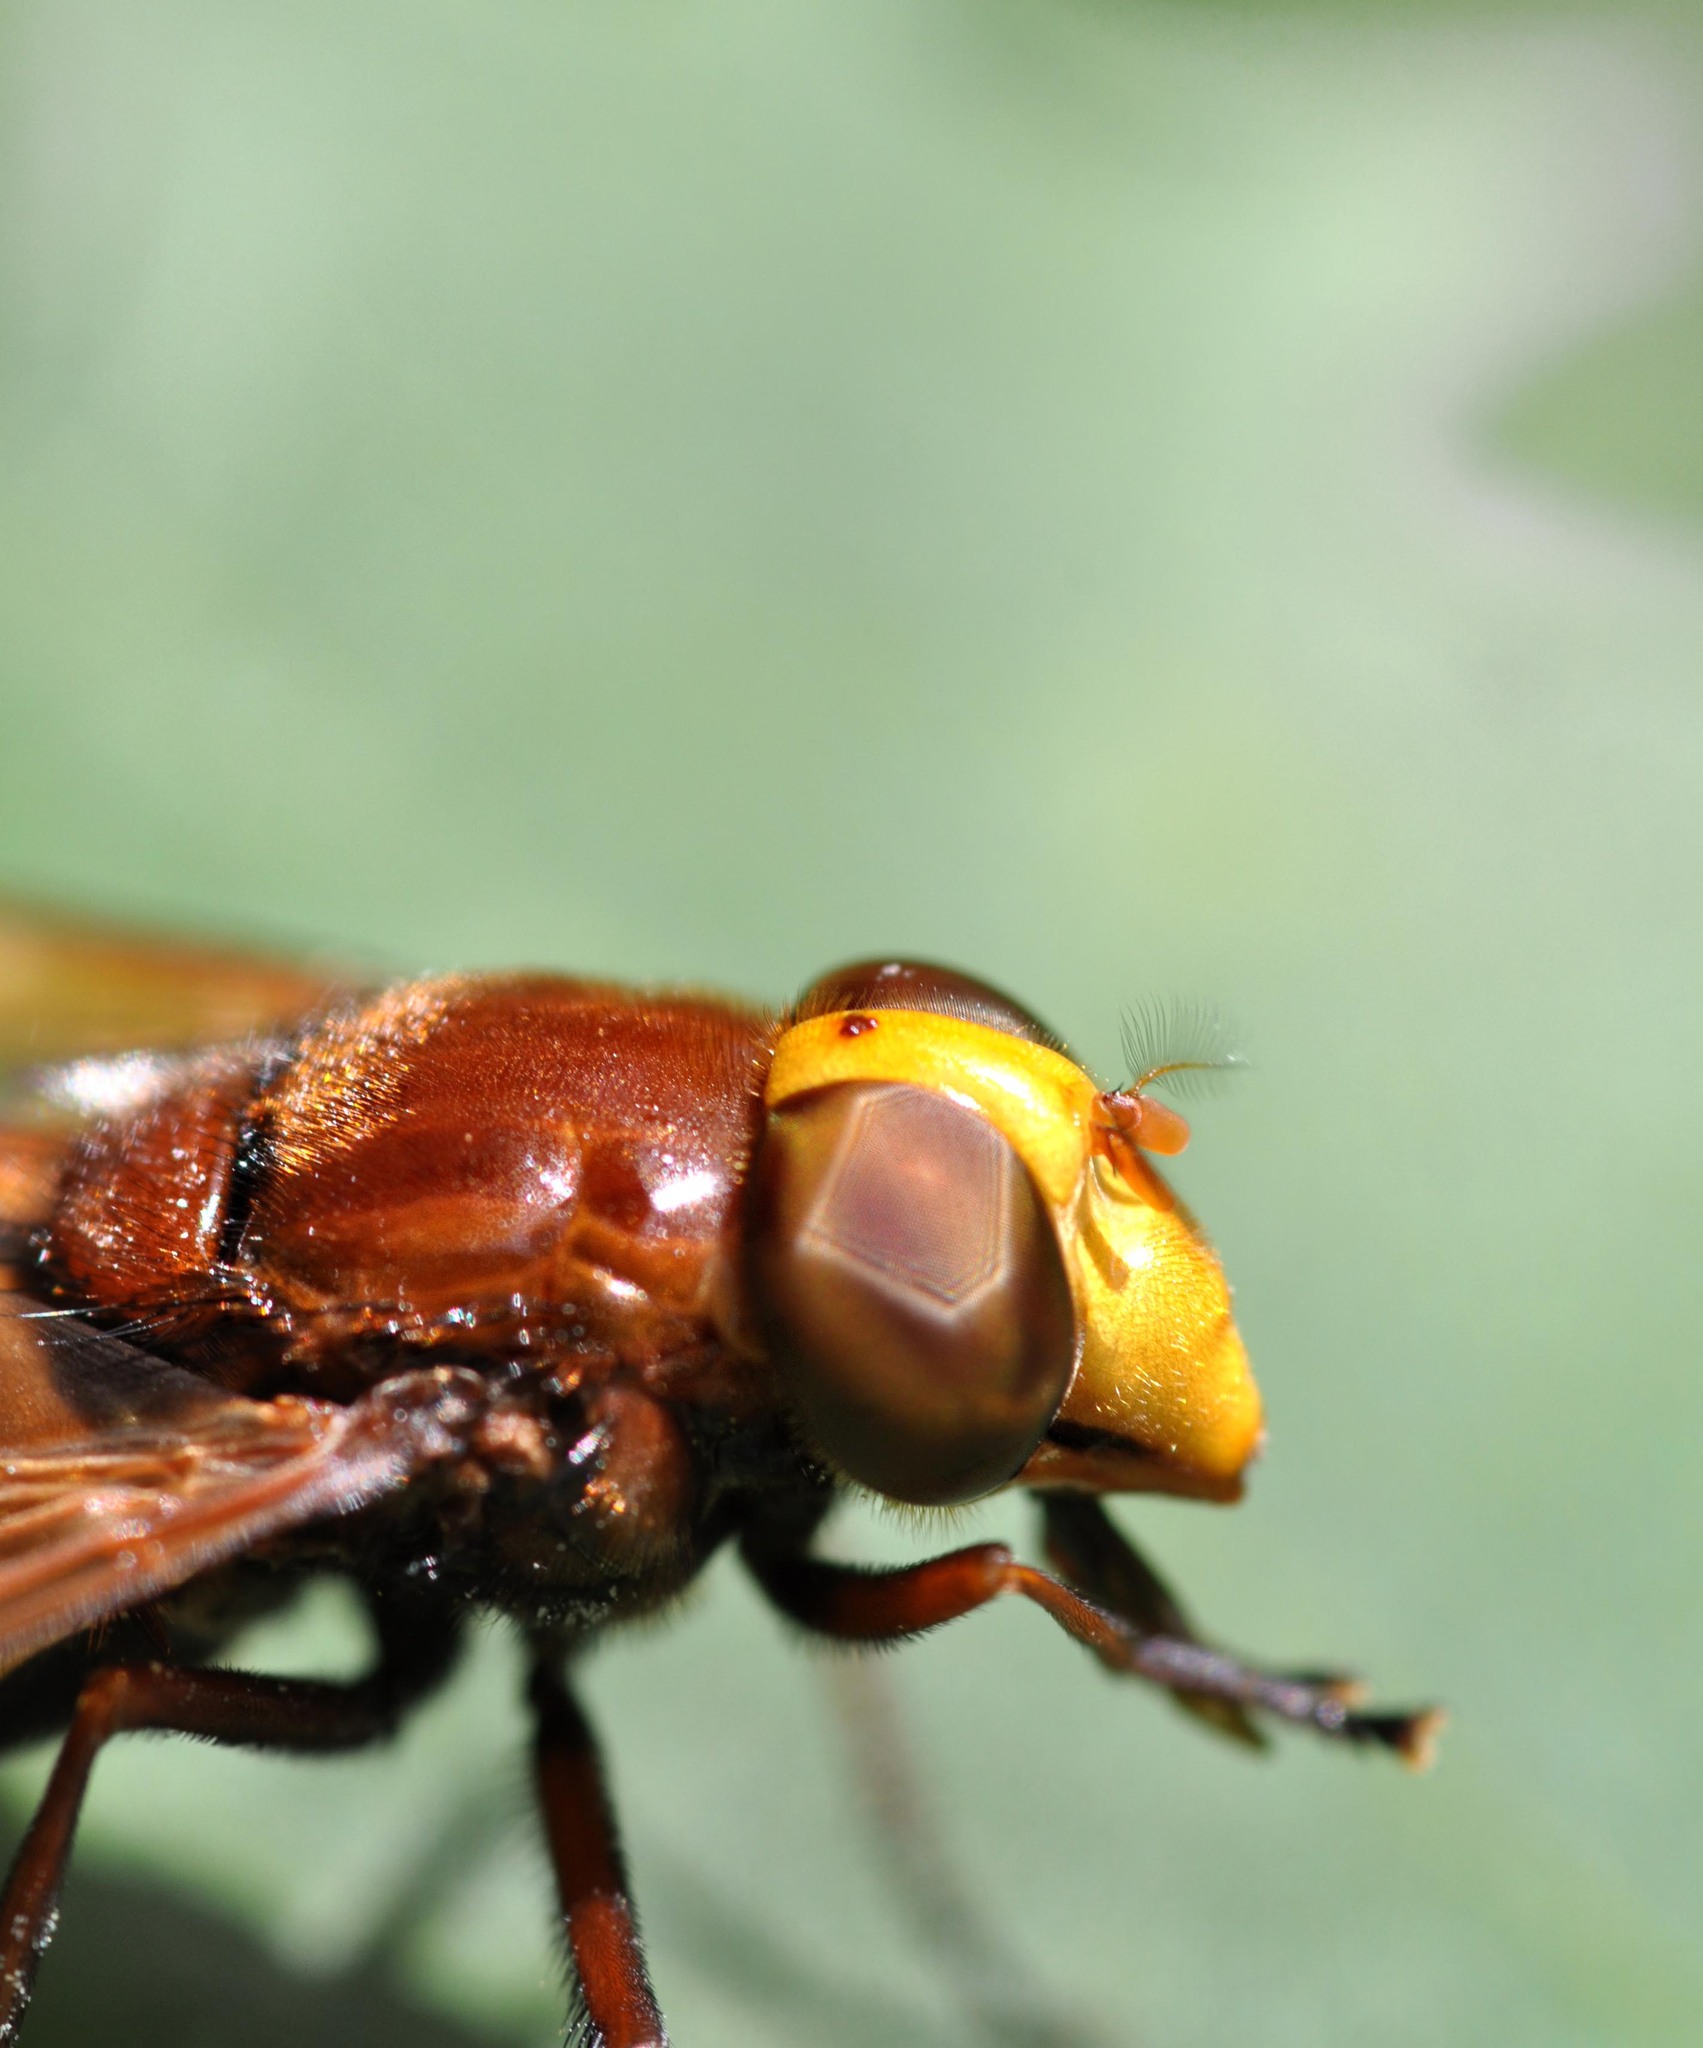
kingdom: Animalia
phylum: Arthropoda
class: Insecta
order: Diptera
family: Syrphidae
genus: Volucella
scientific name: Volucella zonaria
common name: Hornet hoverfly
